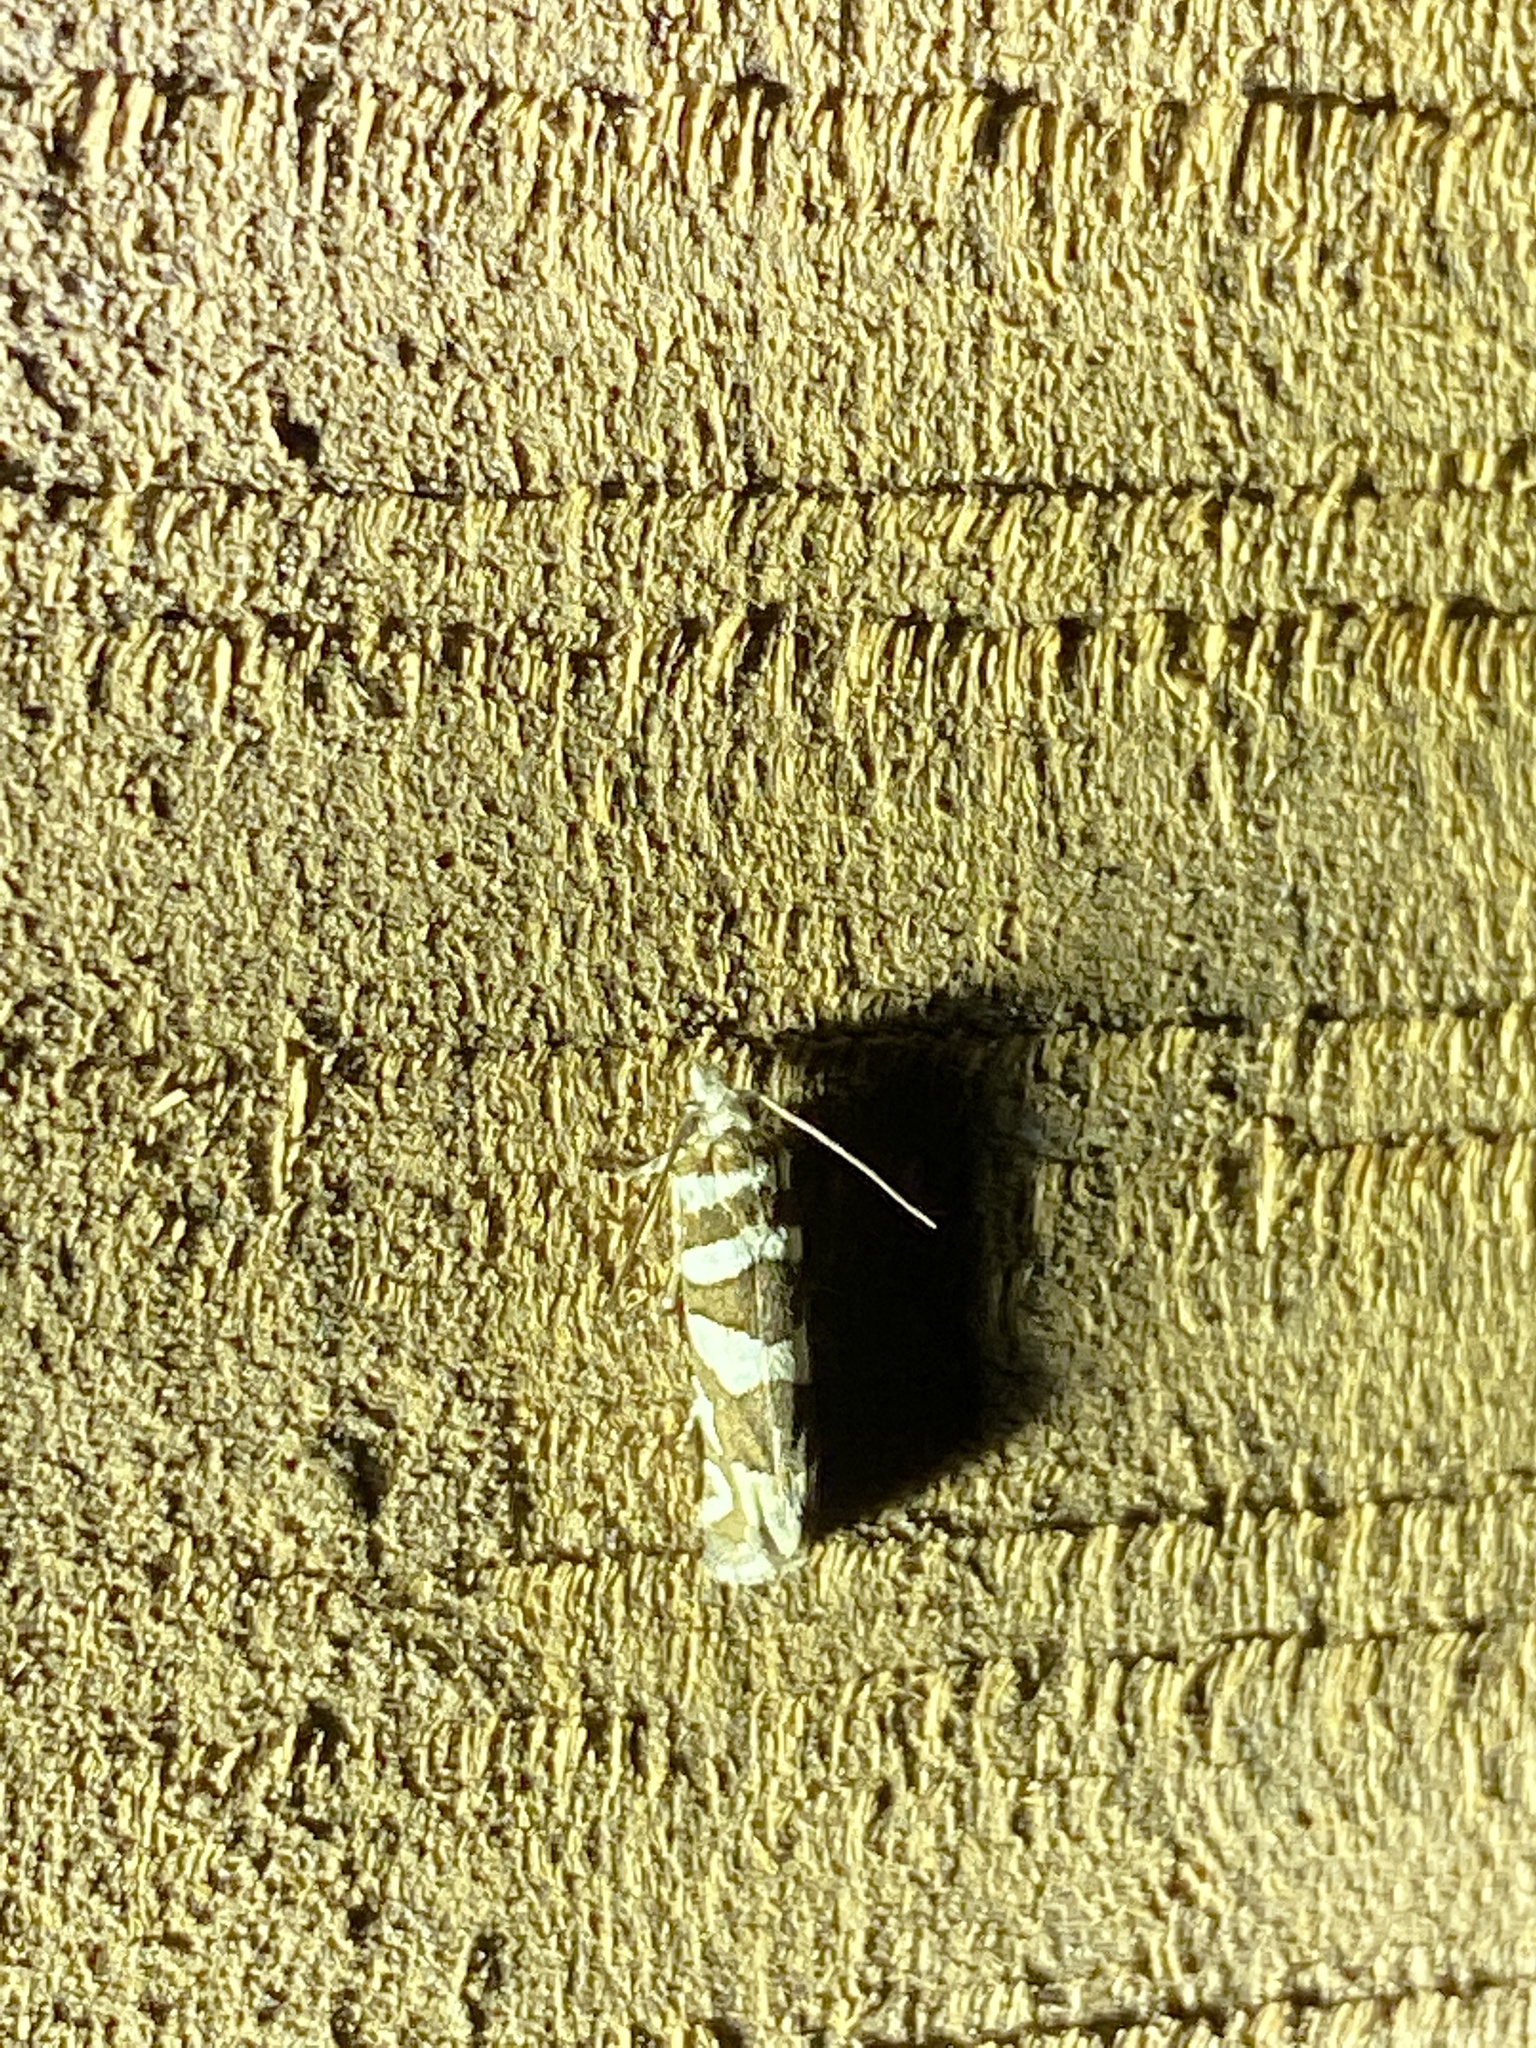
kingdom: Animalia
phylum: Arthropoda
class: Insecta
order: Lepidoptera
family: Tortricidae
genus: Pelochrista
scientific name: Pelochrista robinsonana
